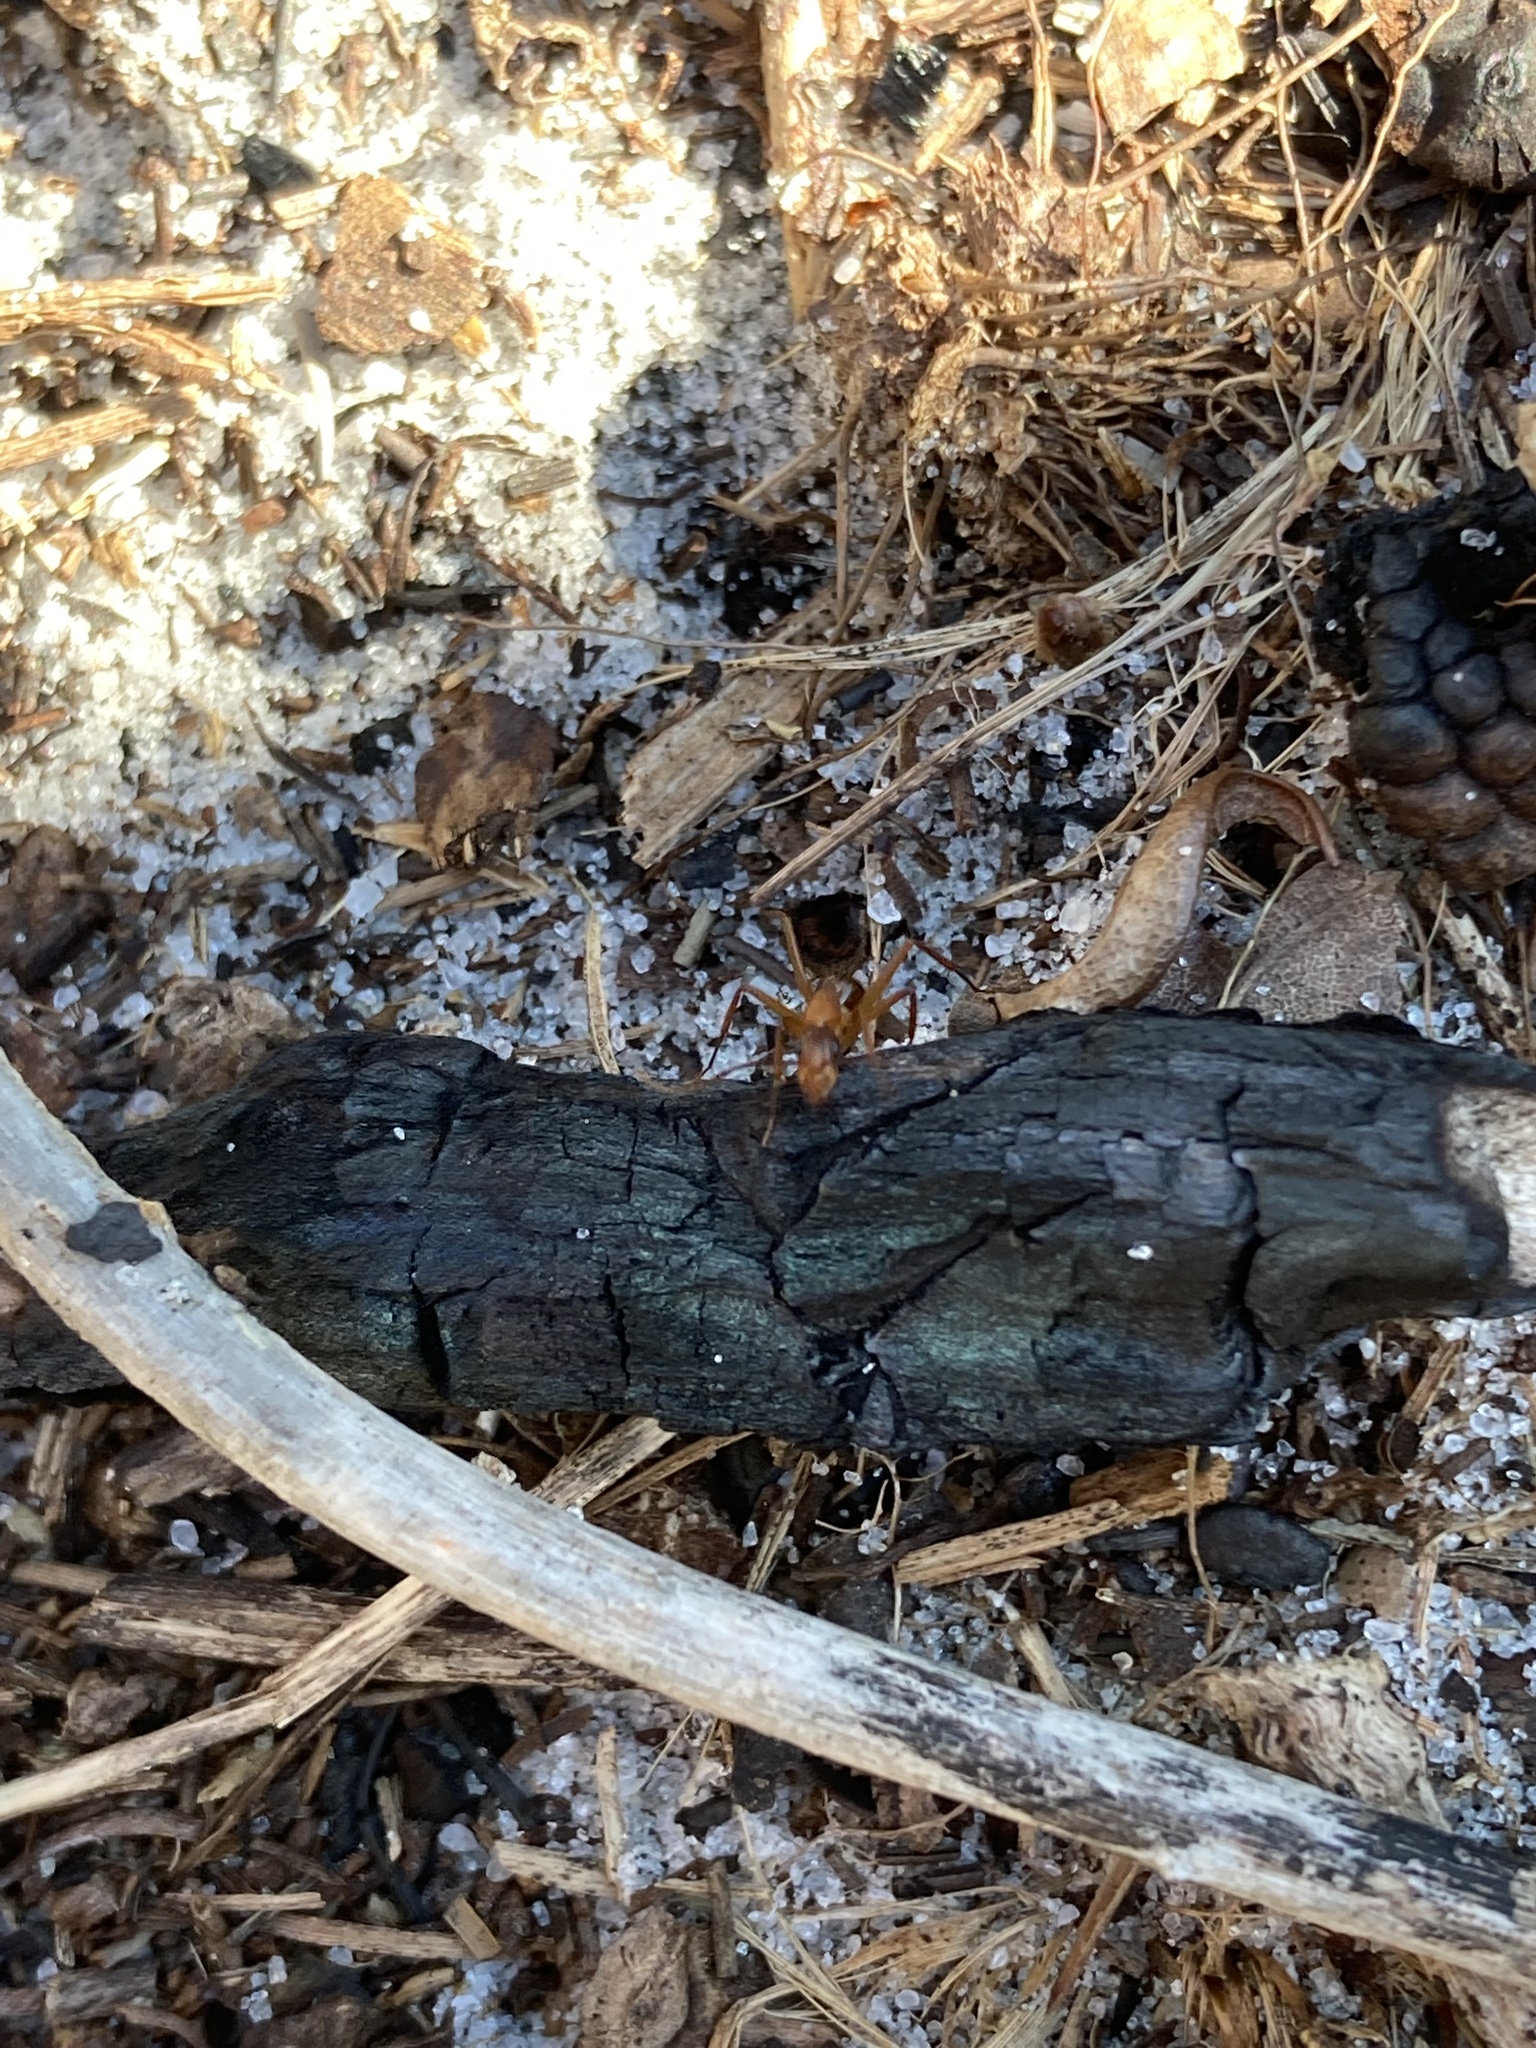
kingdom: Animalia
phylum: Arthropoda
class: Insecta
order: Hymenoptera
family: Formicidae
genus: Camponotus
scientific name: Camponotus inaequalis
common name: Ant
